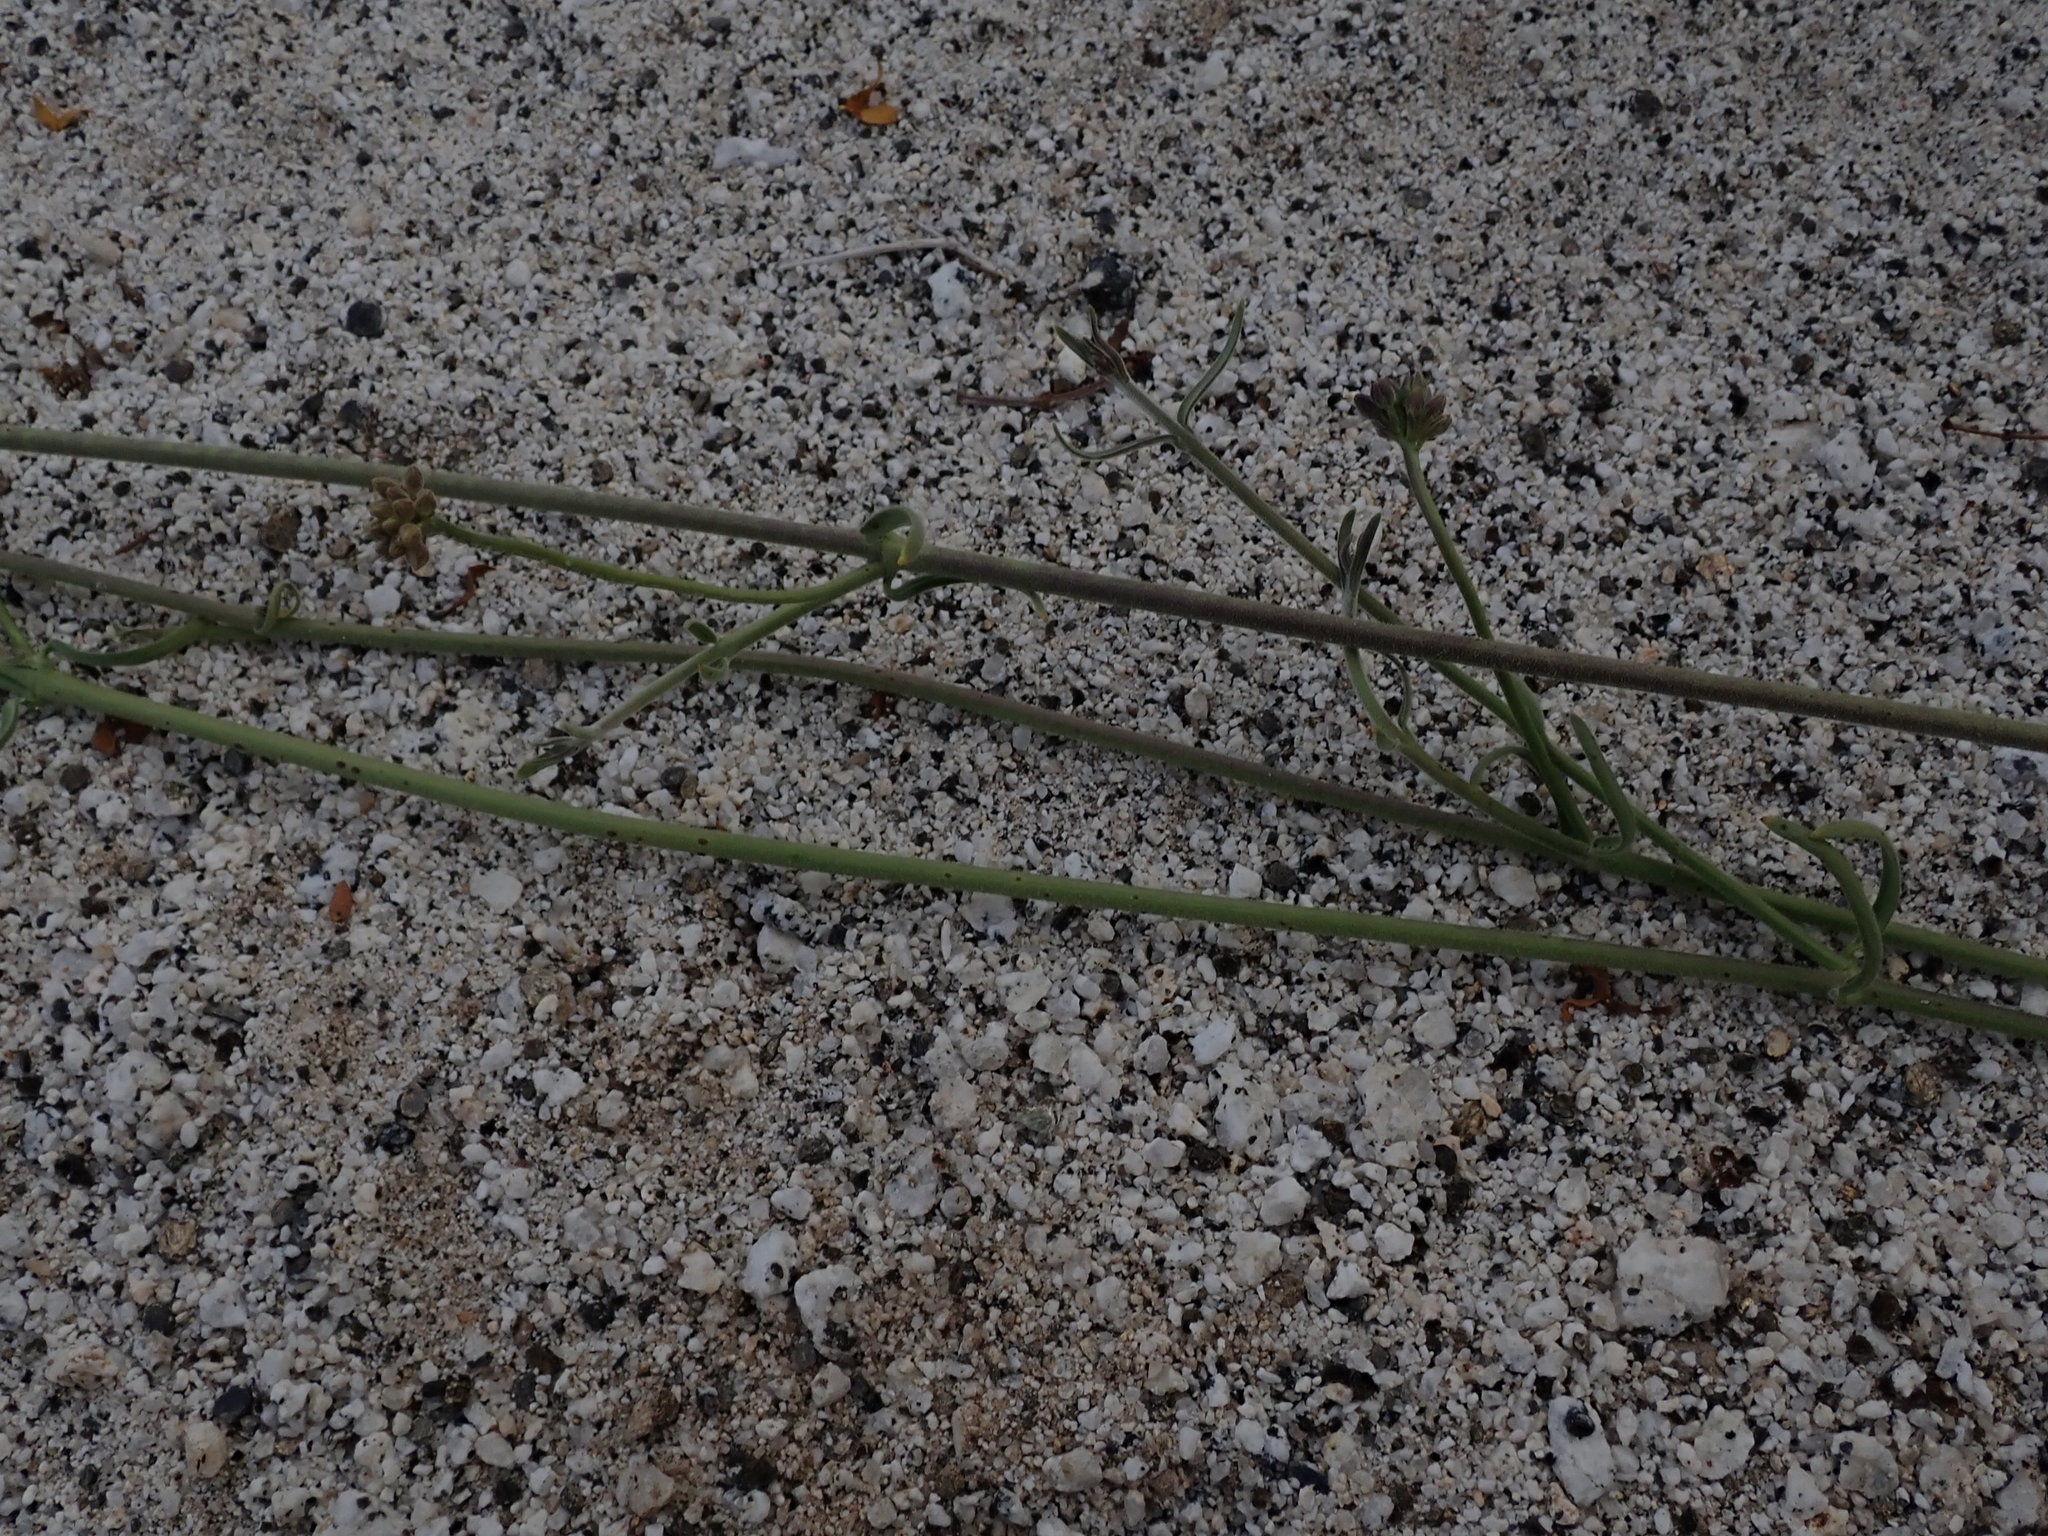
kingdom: Plantae
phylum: Tracheophyta
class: Magnoliopsida
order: Gentianales
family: Apocynaceae
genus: Funastrum
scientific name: Funastrum heterophyllum
